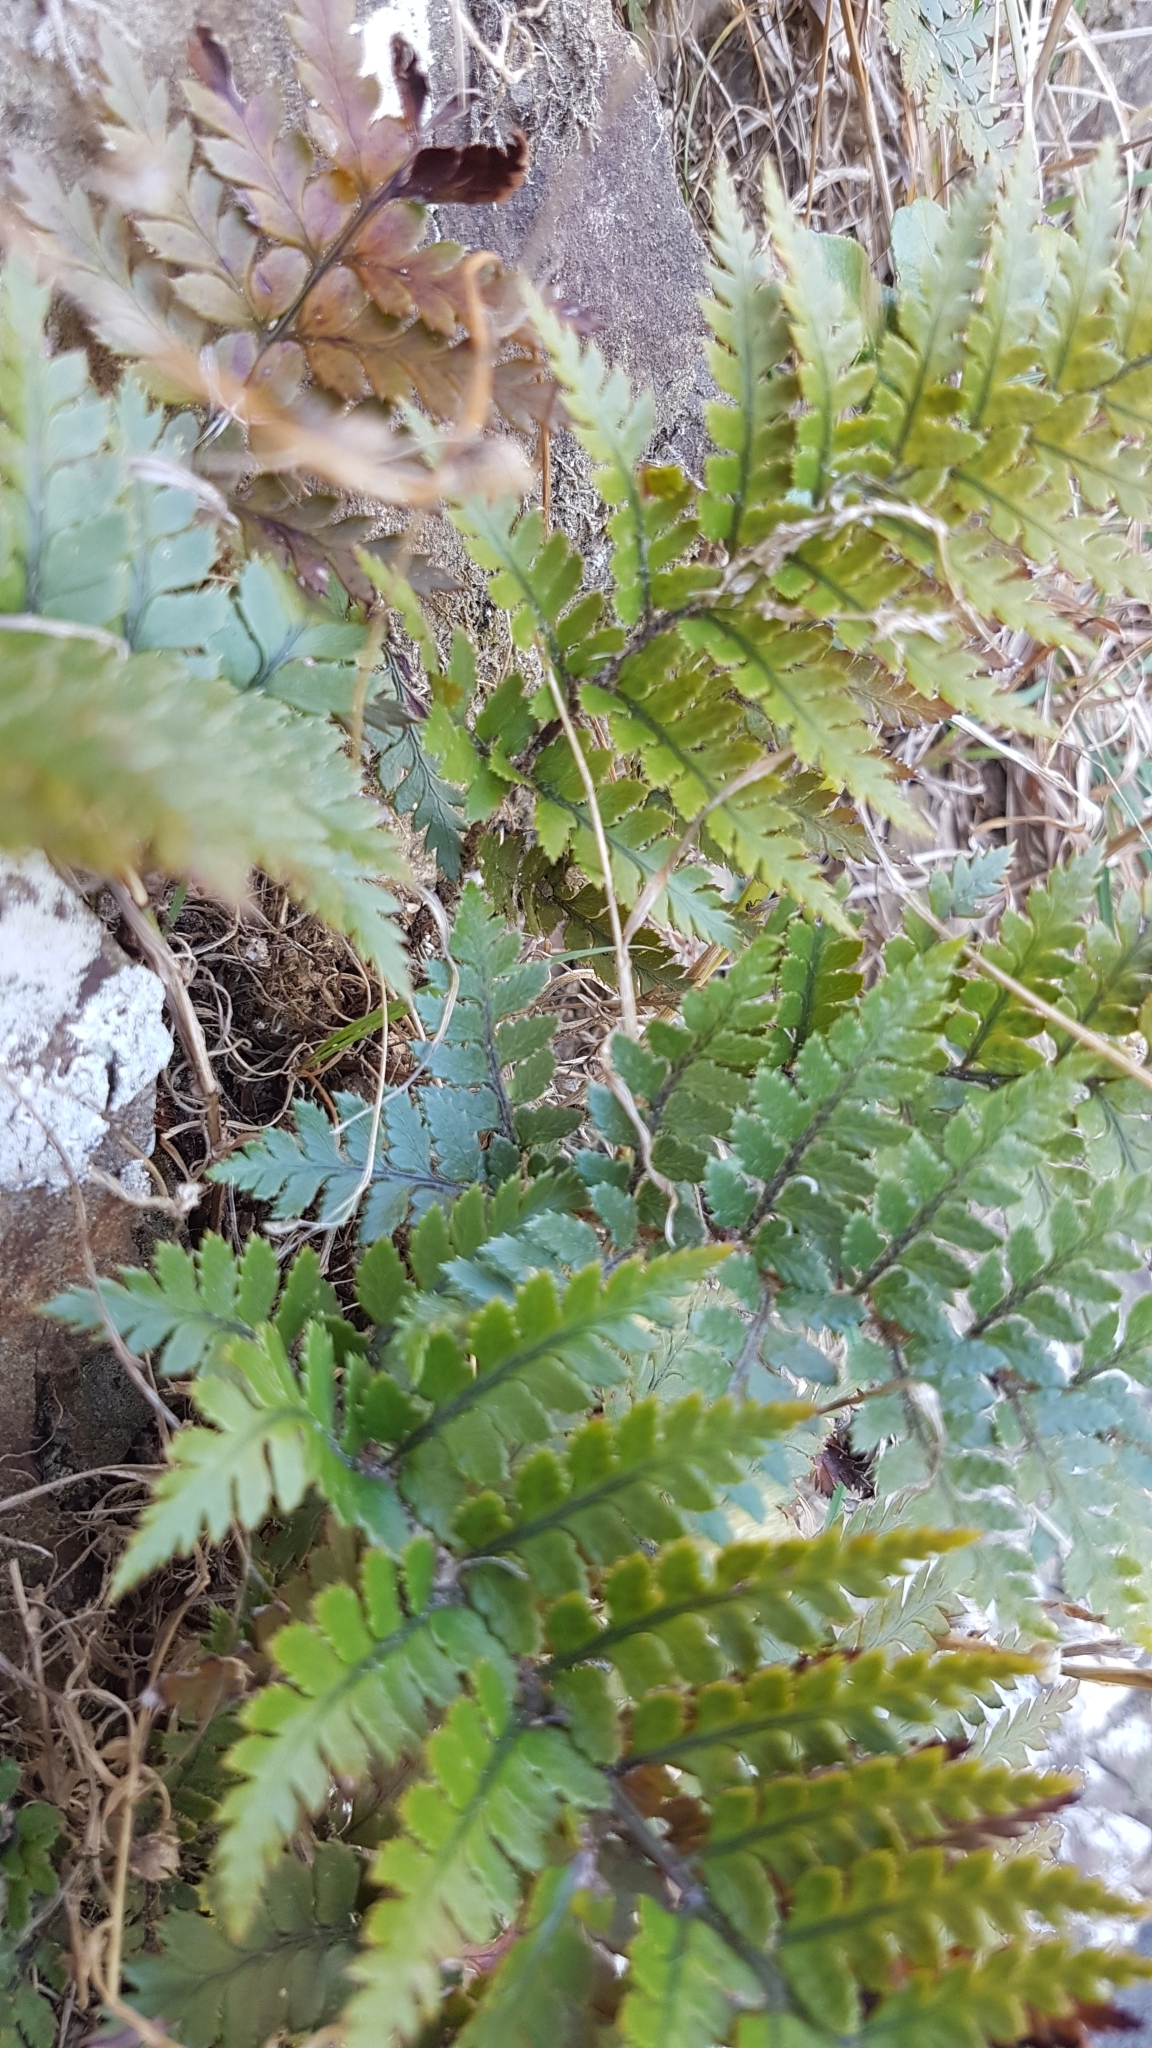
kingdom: Plantae
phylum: Tracheophyta
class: Polypodiopsida
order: Polypodiales
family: Dryopteridaceae
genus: Polystichum
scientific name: Polystichum neozelandicum
